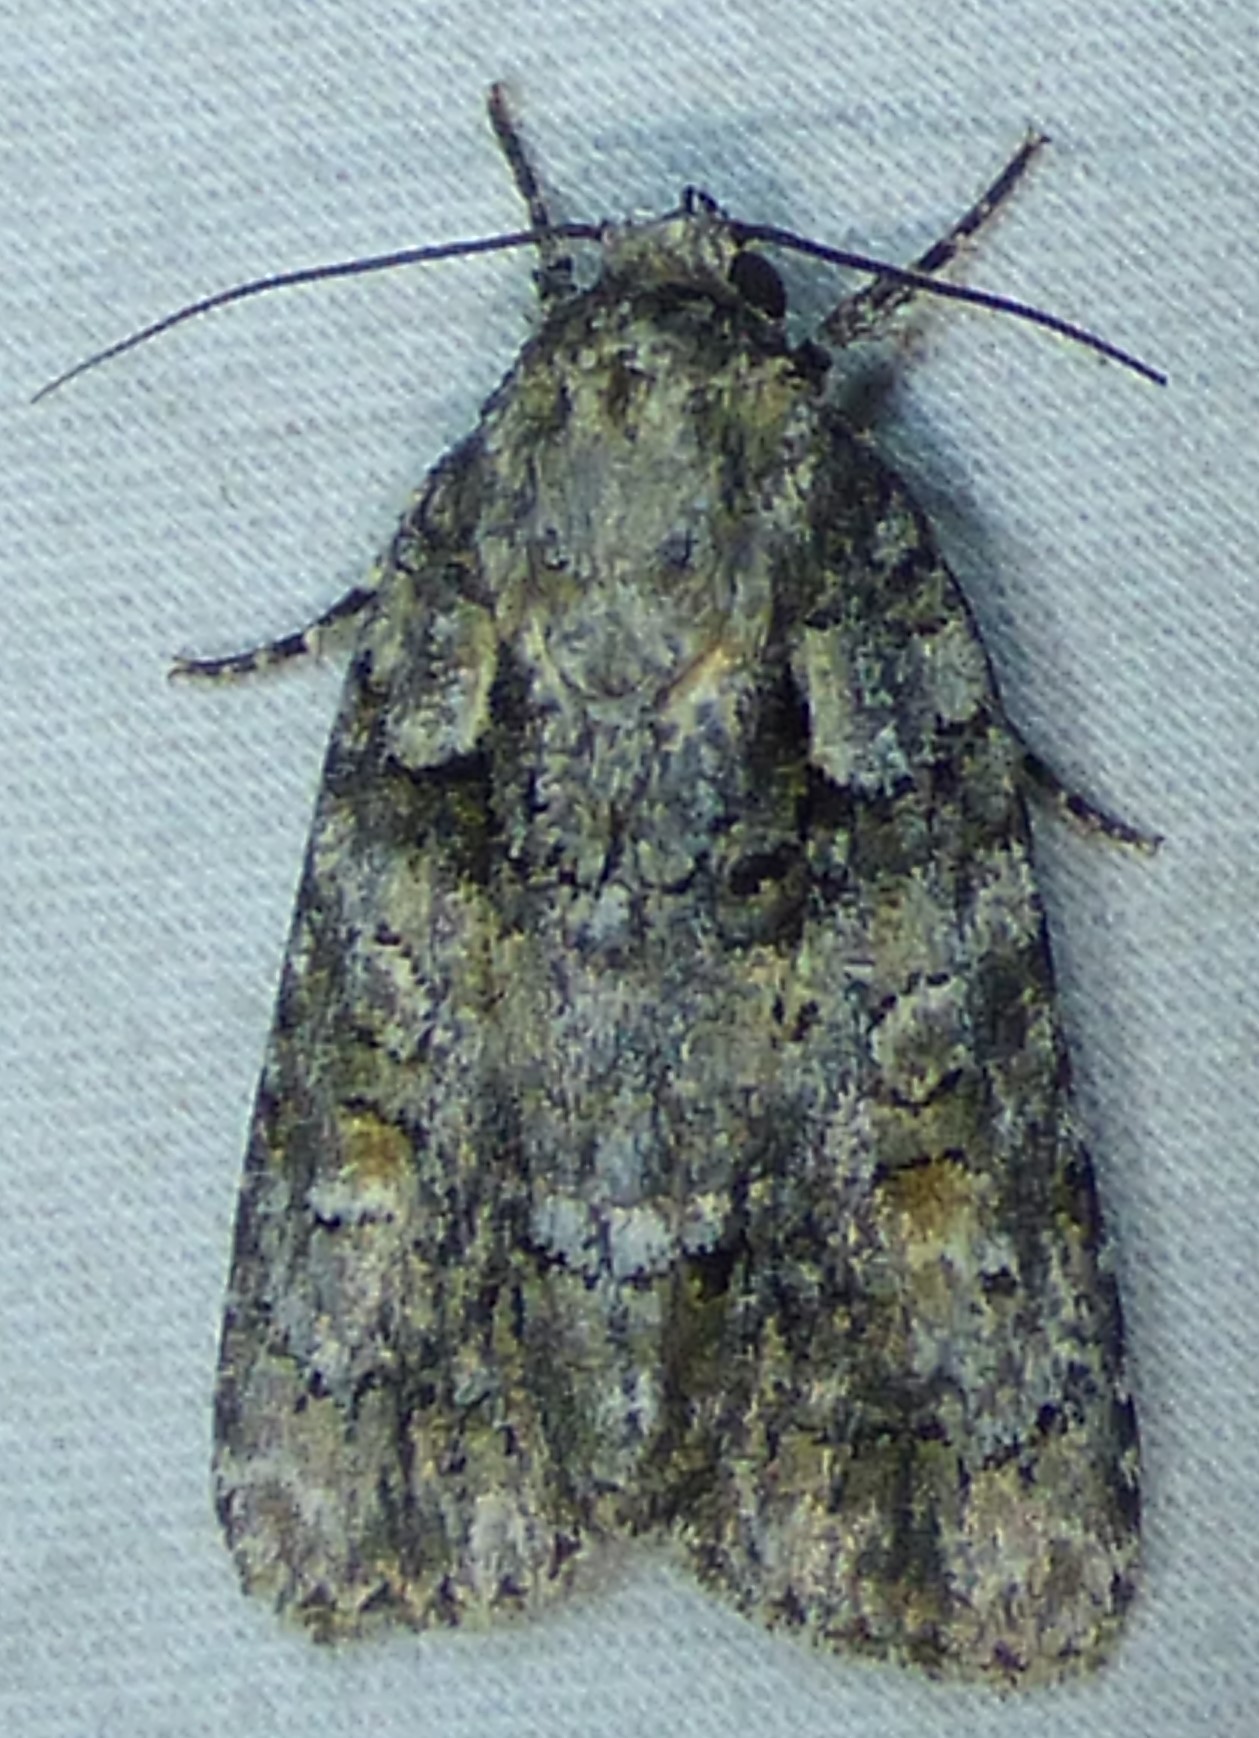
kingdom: Animalia
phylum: Arthropoda
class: Insecta
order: Lepidoptera
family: Noctuidae
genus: Acronicta
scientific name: Acronicta ovata
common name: Epauleted oak dagger
